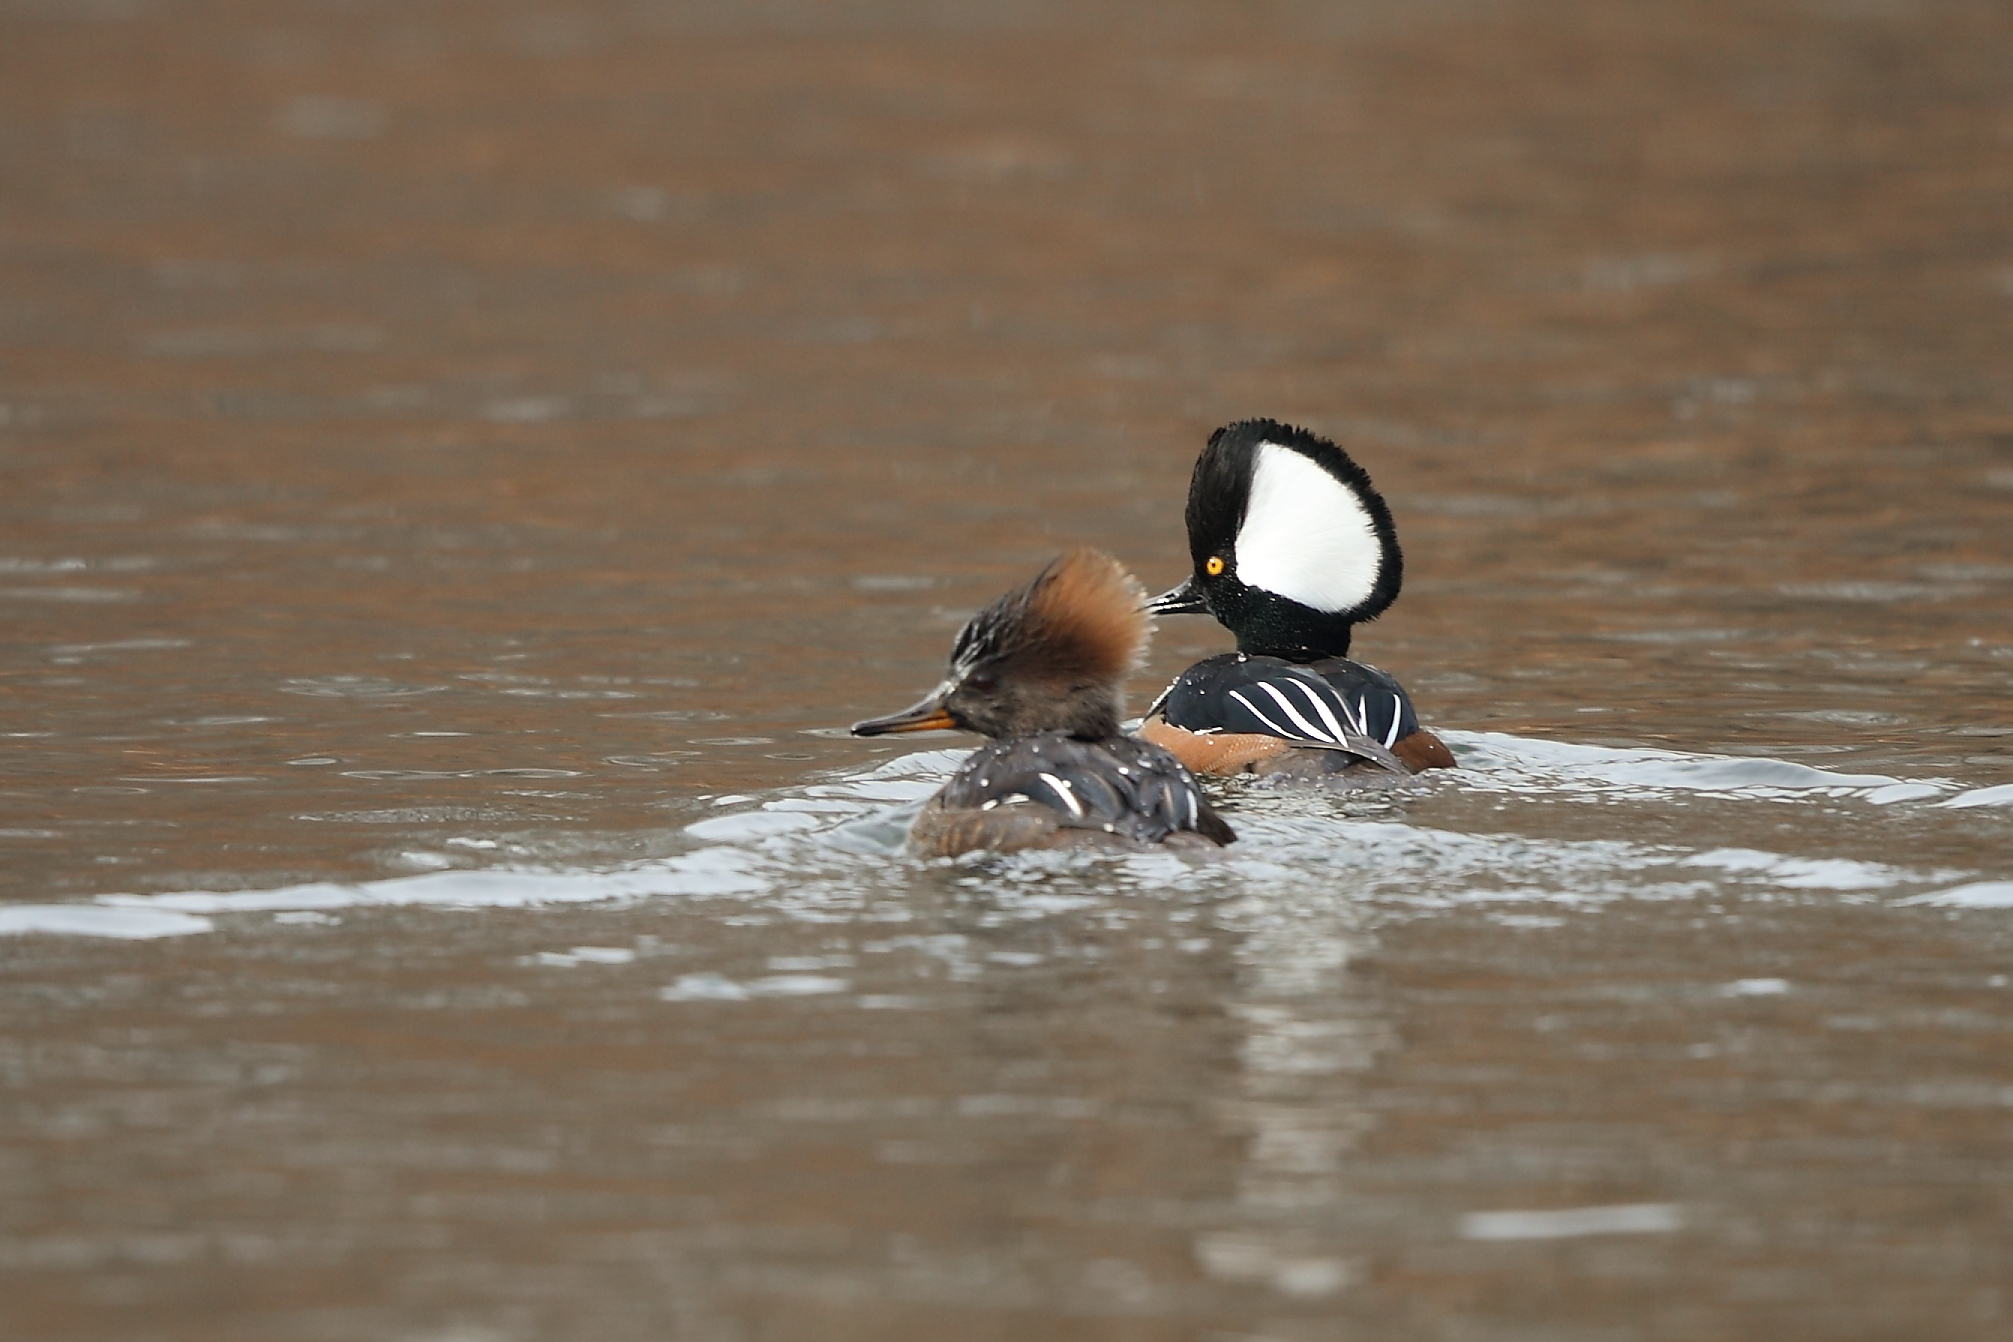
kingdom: Animalia
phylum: Chordata
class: Aves
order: Anseriformes
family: Anatidae
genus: Lophodytes
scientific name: Lophodytes cucullatus
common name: Hooded merganser
